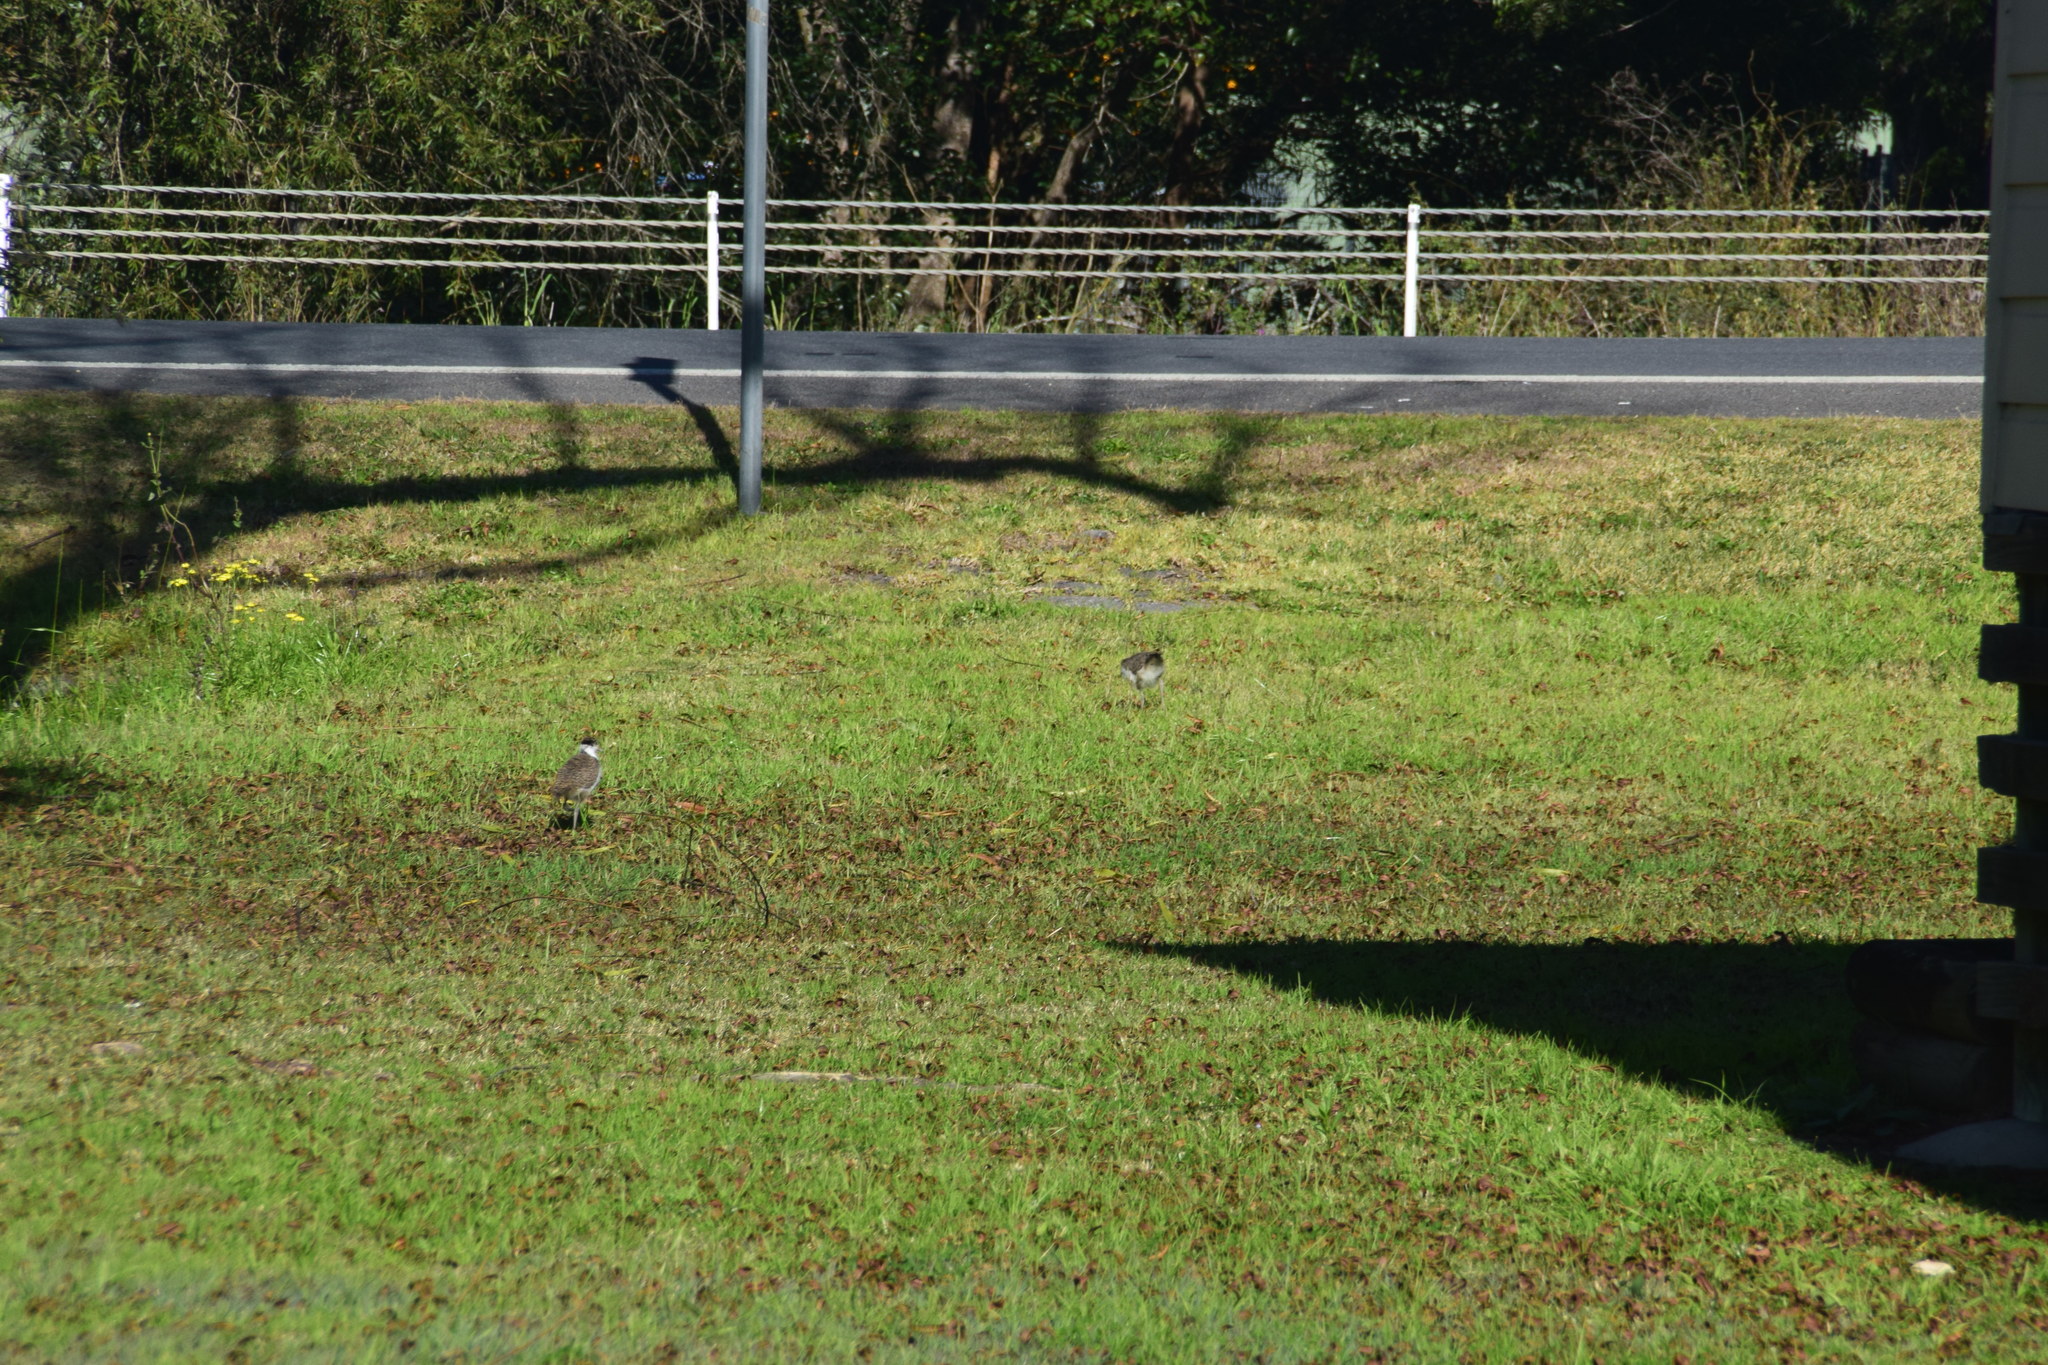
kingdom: Animalia
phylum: Chordata
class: Aves
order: Charadriiformes
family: Charadriidae
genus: Vanellus
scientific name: Vanellus miles
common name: Masked lapwing
